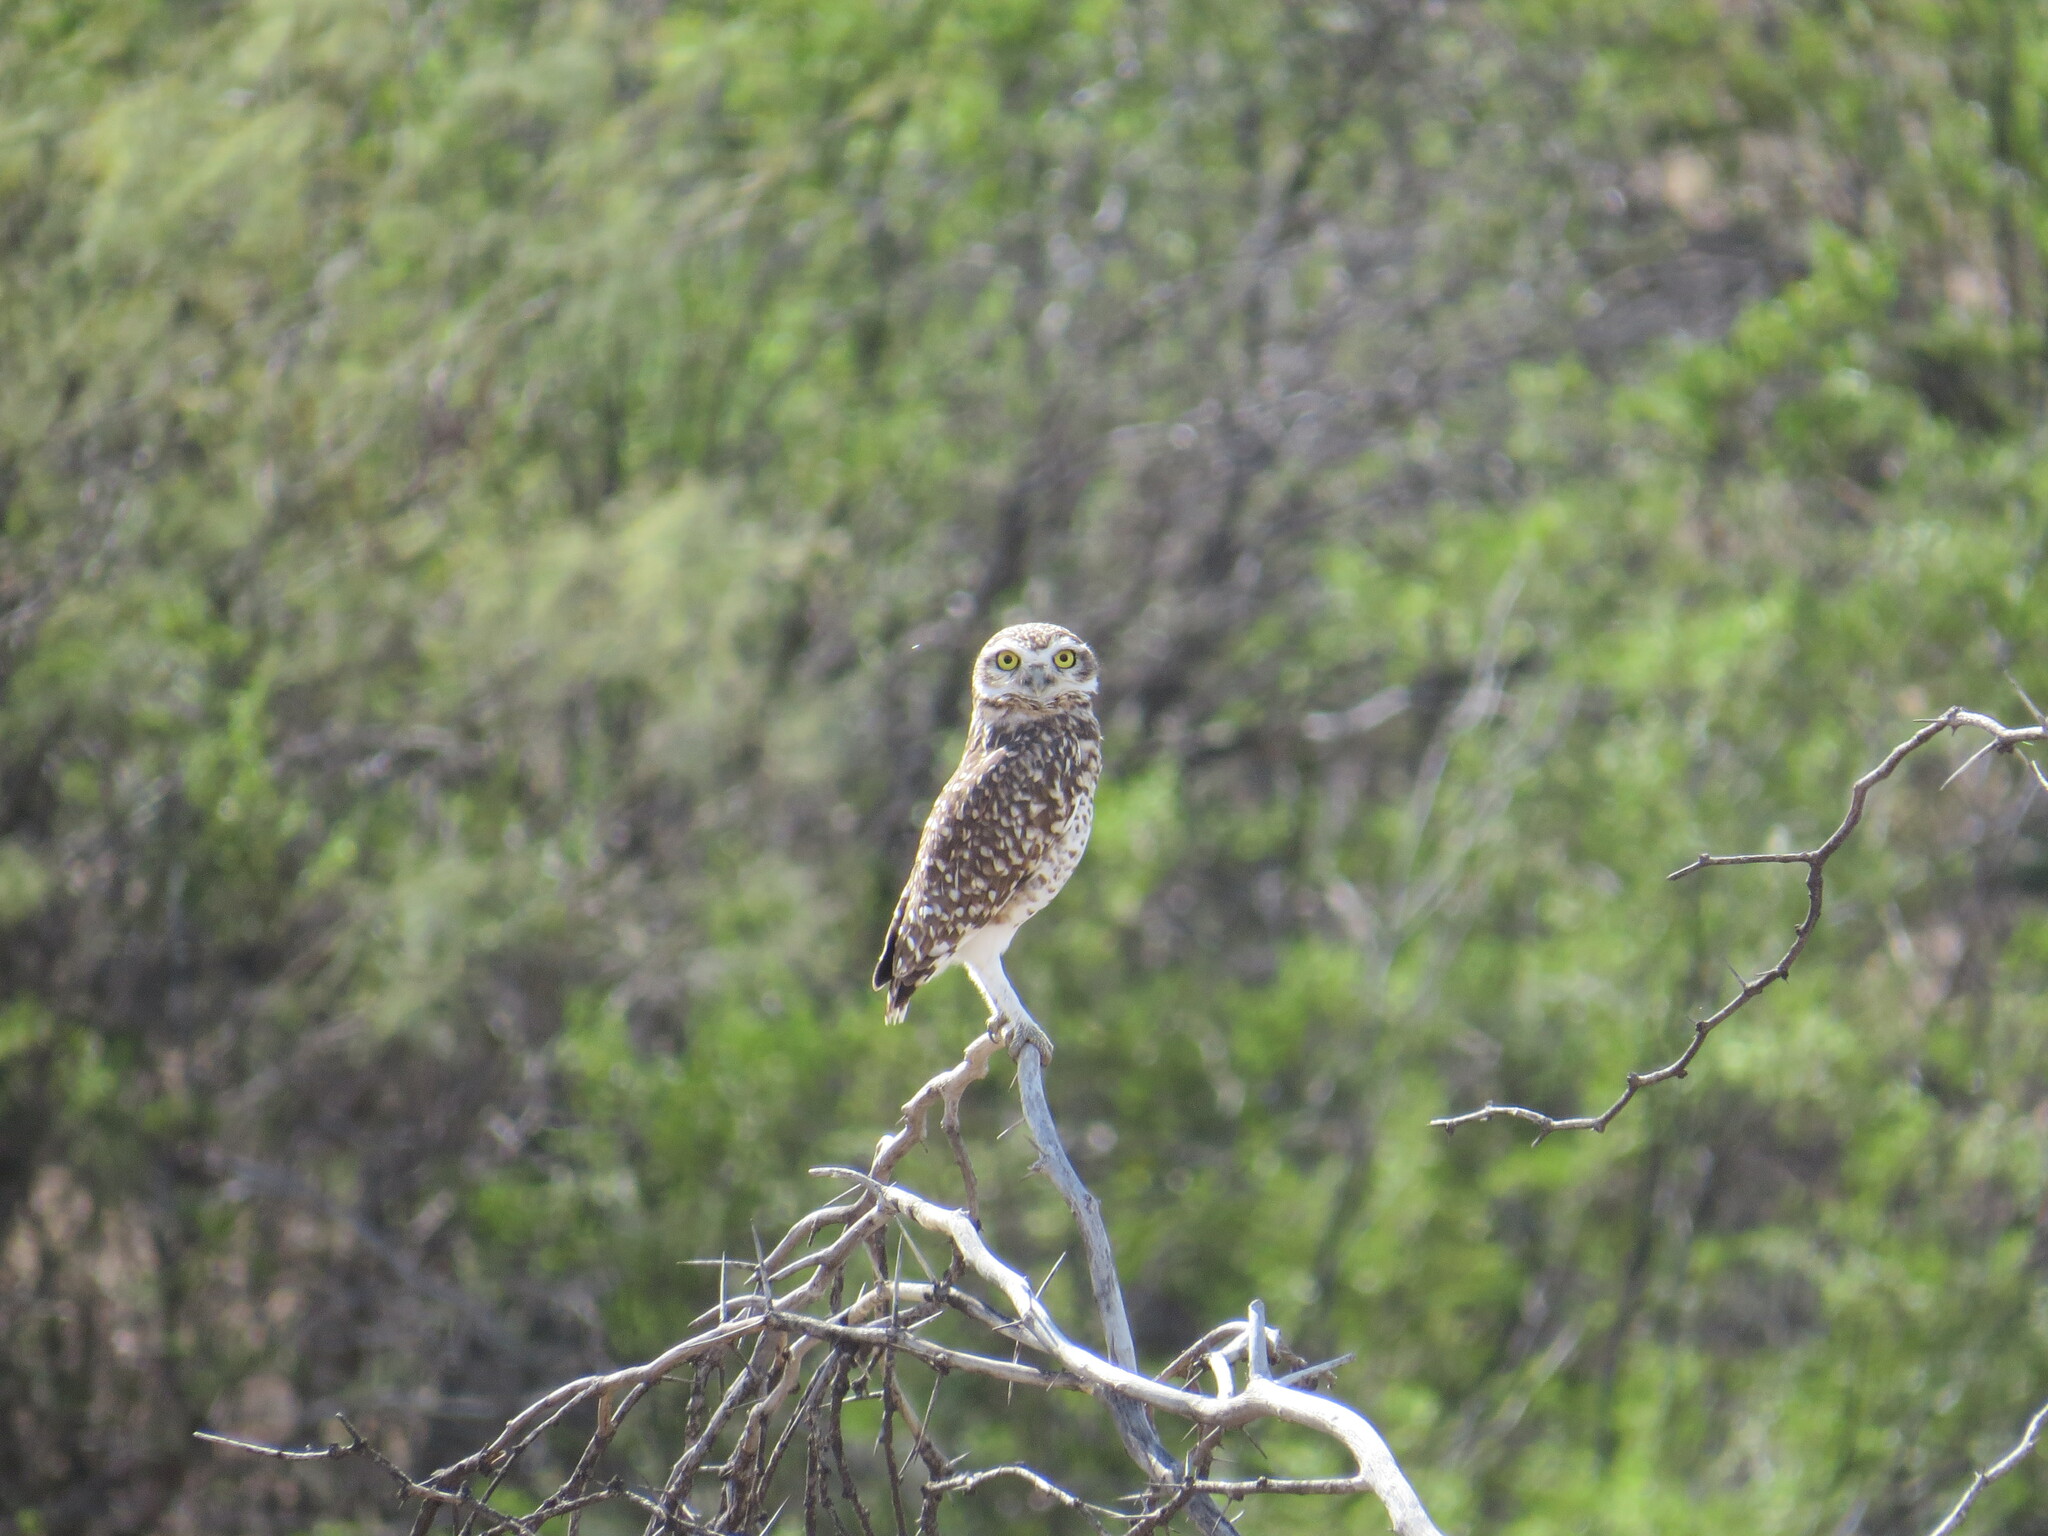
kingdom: Animalia
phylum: Chordata
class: Aves
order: Strigiformes
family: Strigidae
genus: Athene
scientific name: Athene cunicularia
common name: Burrowing owl
